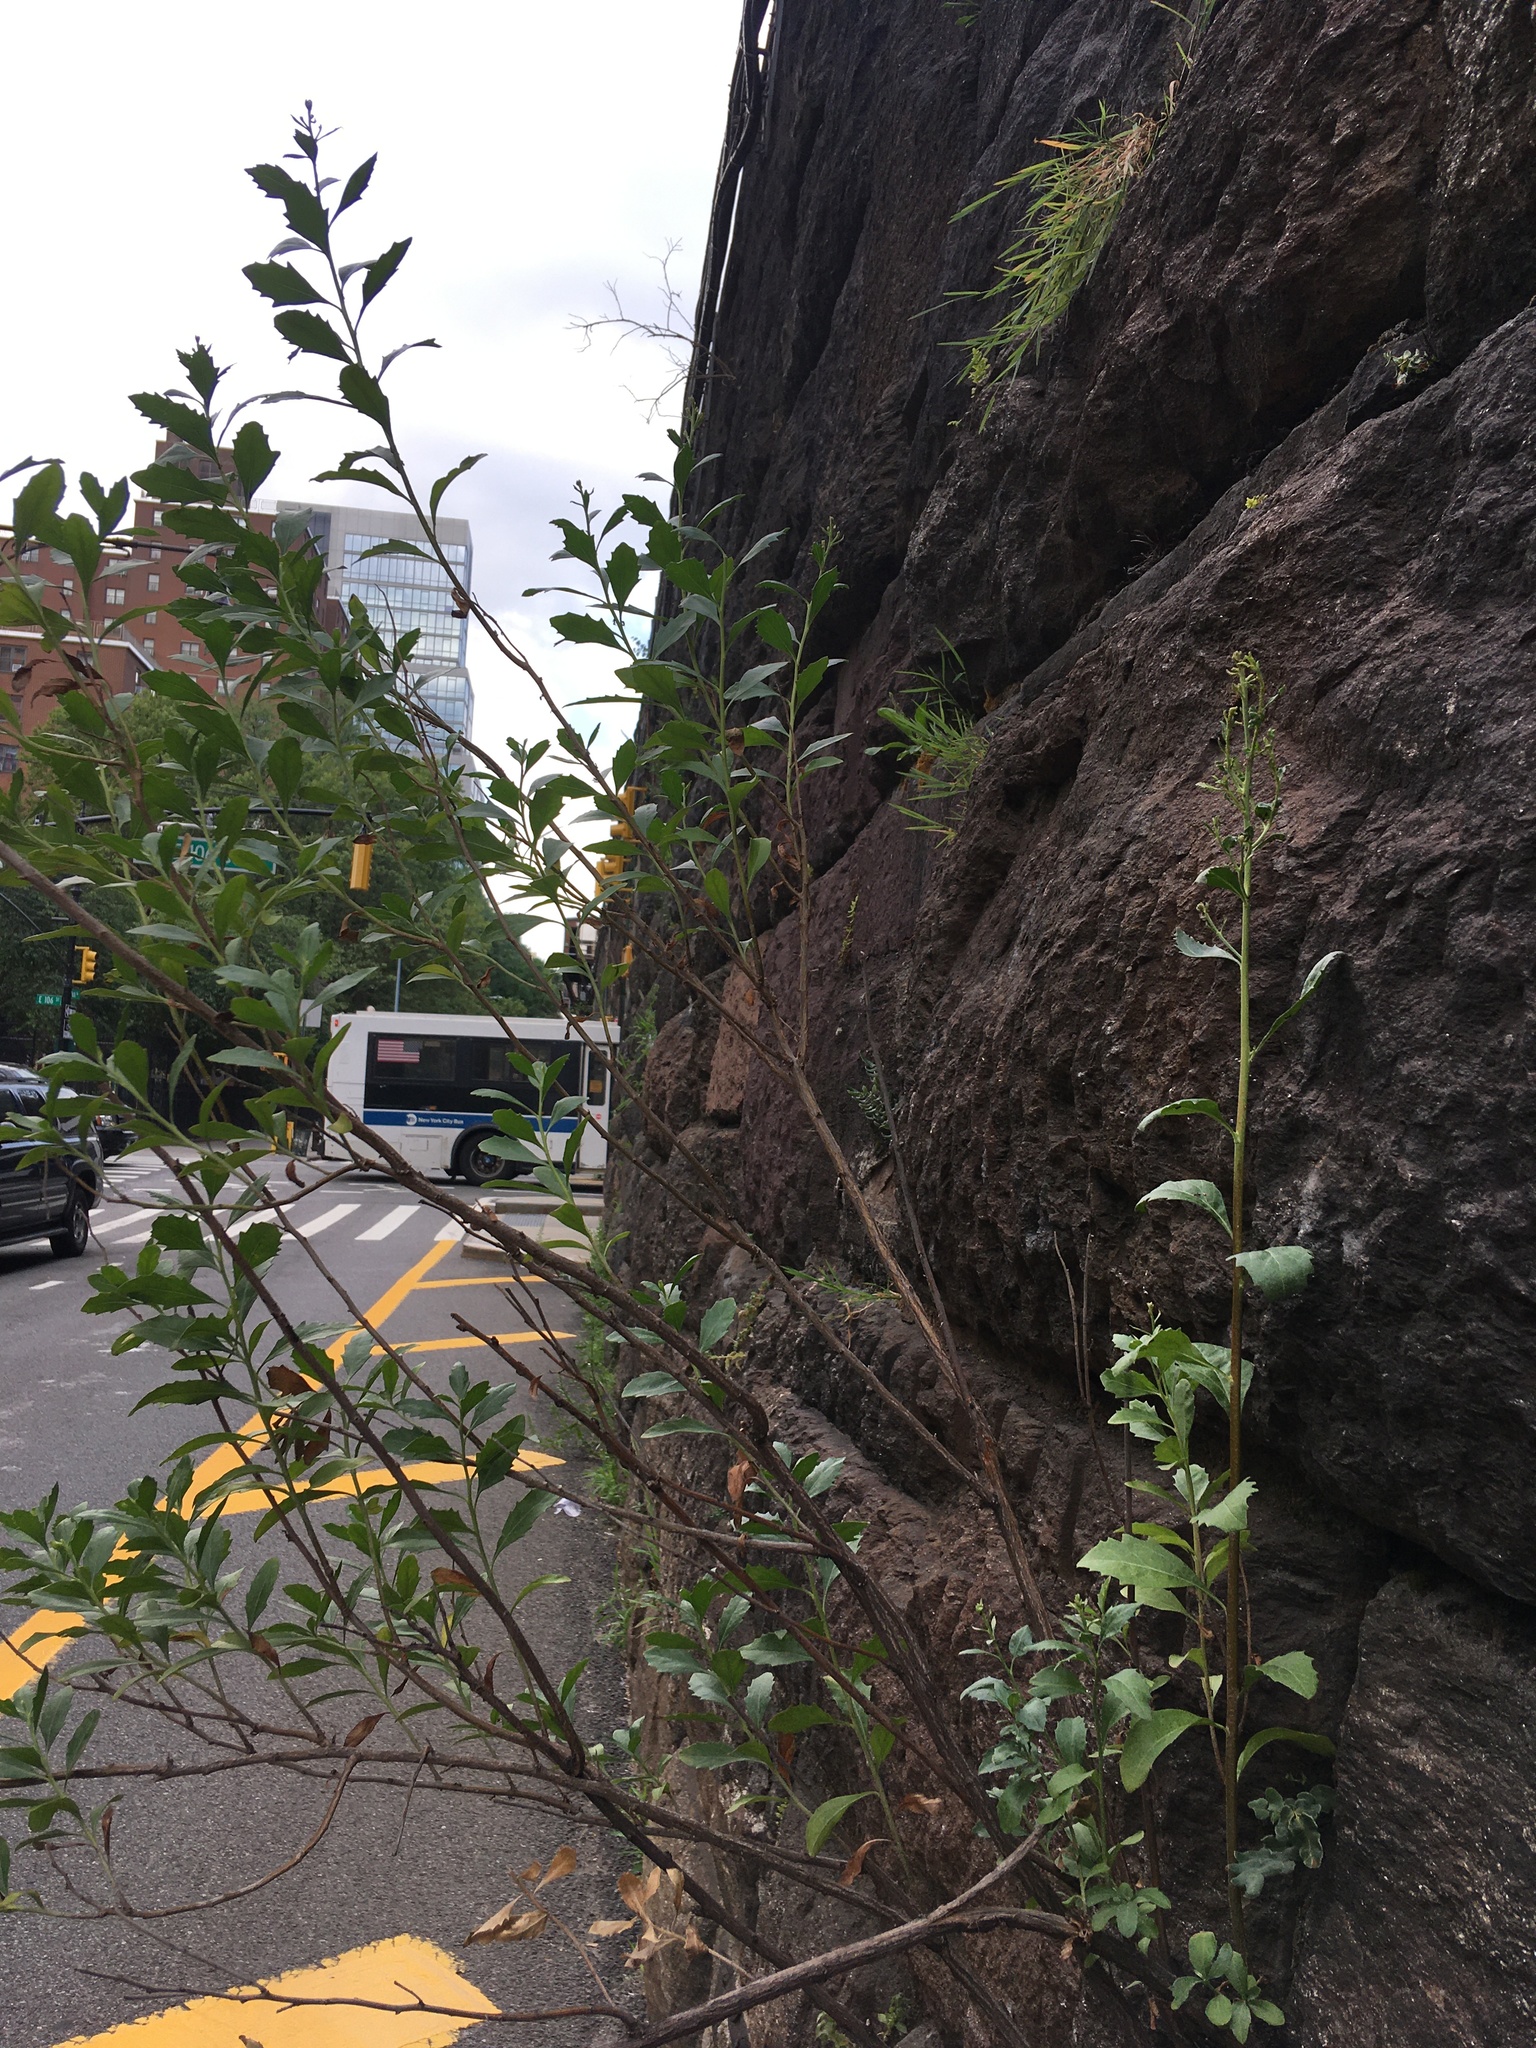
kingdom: Plantae
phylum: Tracheophyta
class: Magnoliopsida
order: Asterales
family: Asteraceae
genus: Baccharis
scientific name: Baccharis halimifolia
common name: Eastern baccharis
